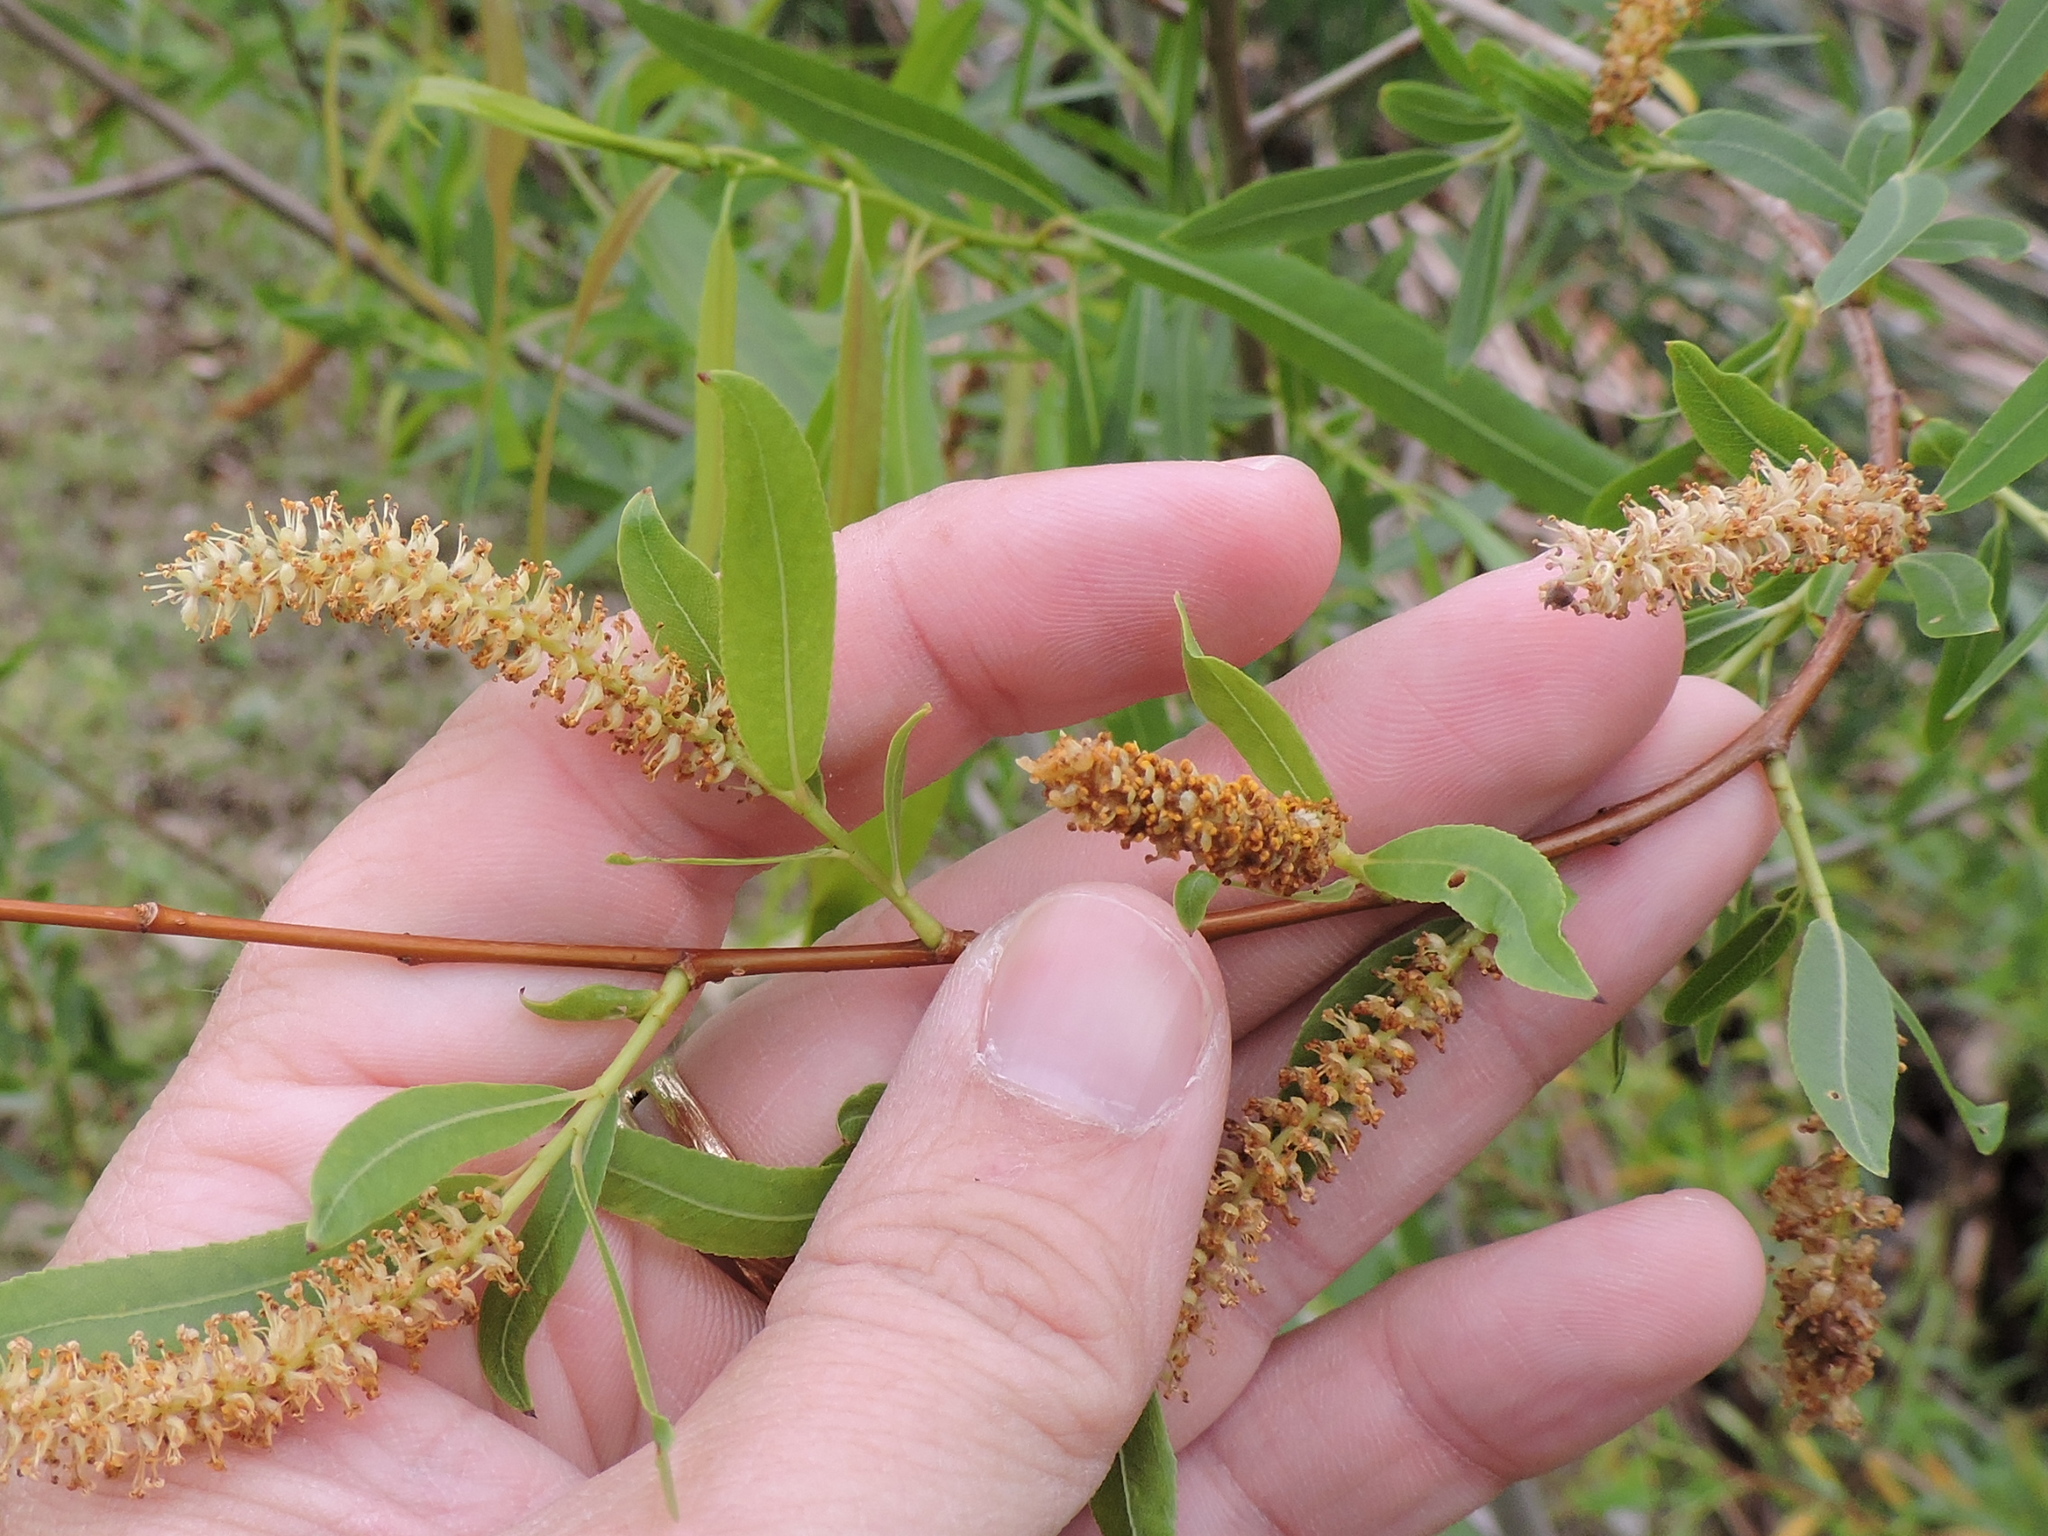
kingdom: Plantae
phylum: Tracheophyta
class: Magnoliopsida
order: Malpighiales
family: Salicaceae
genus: Salix
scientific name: Salix nigra
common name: Black willow
